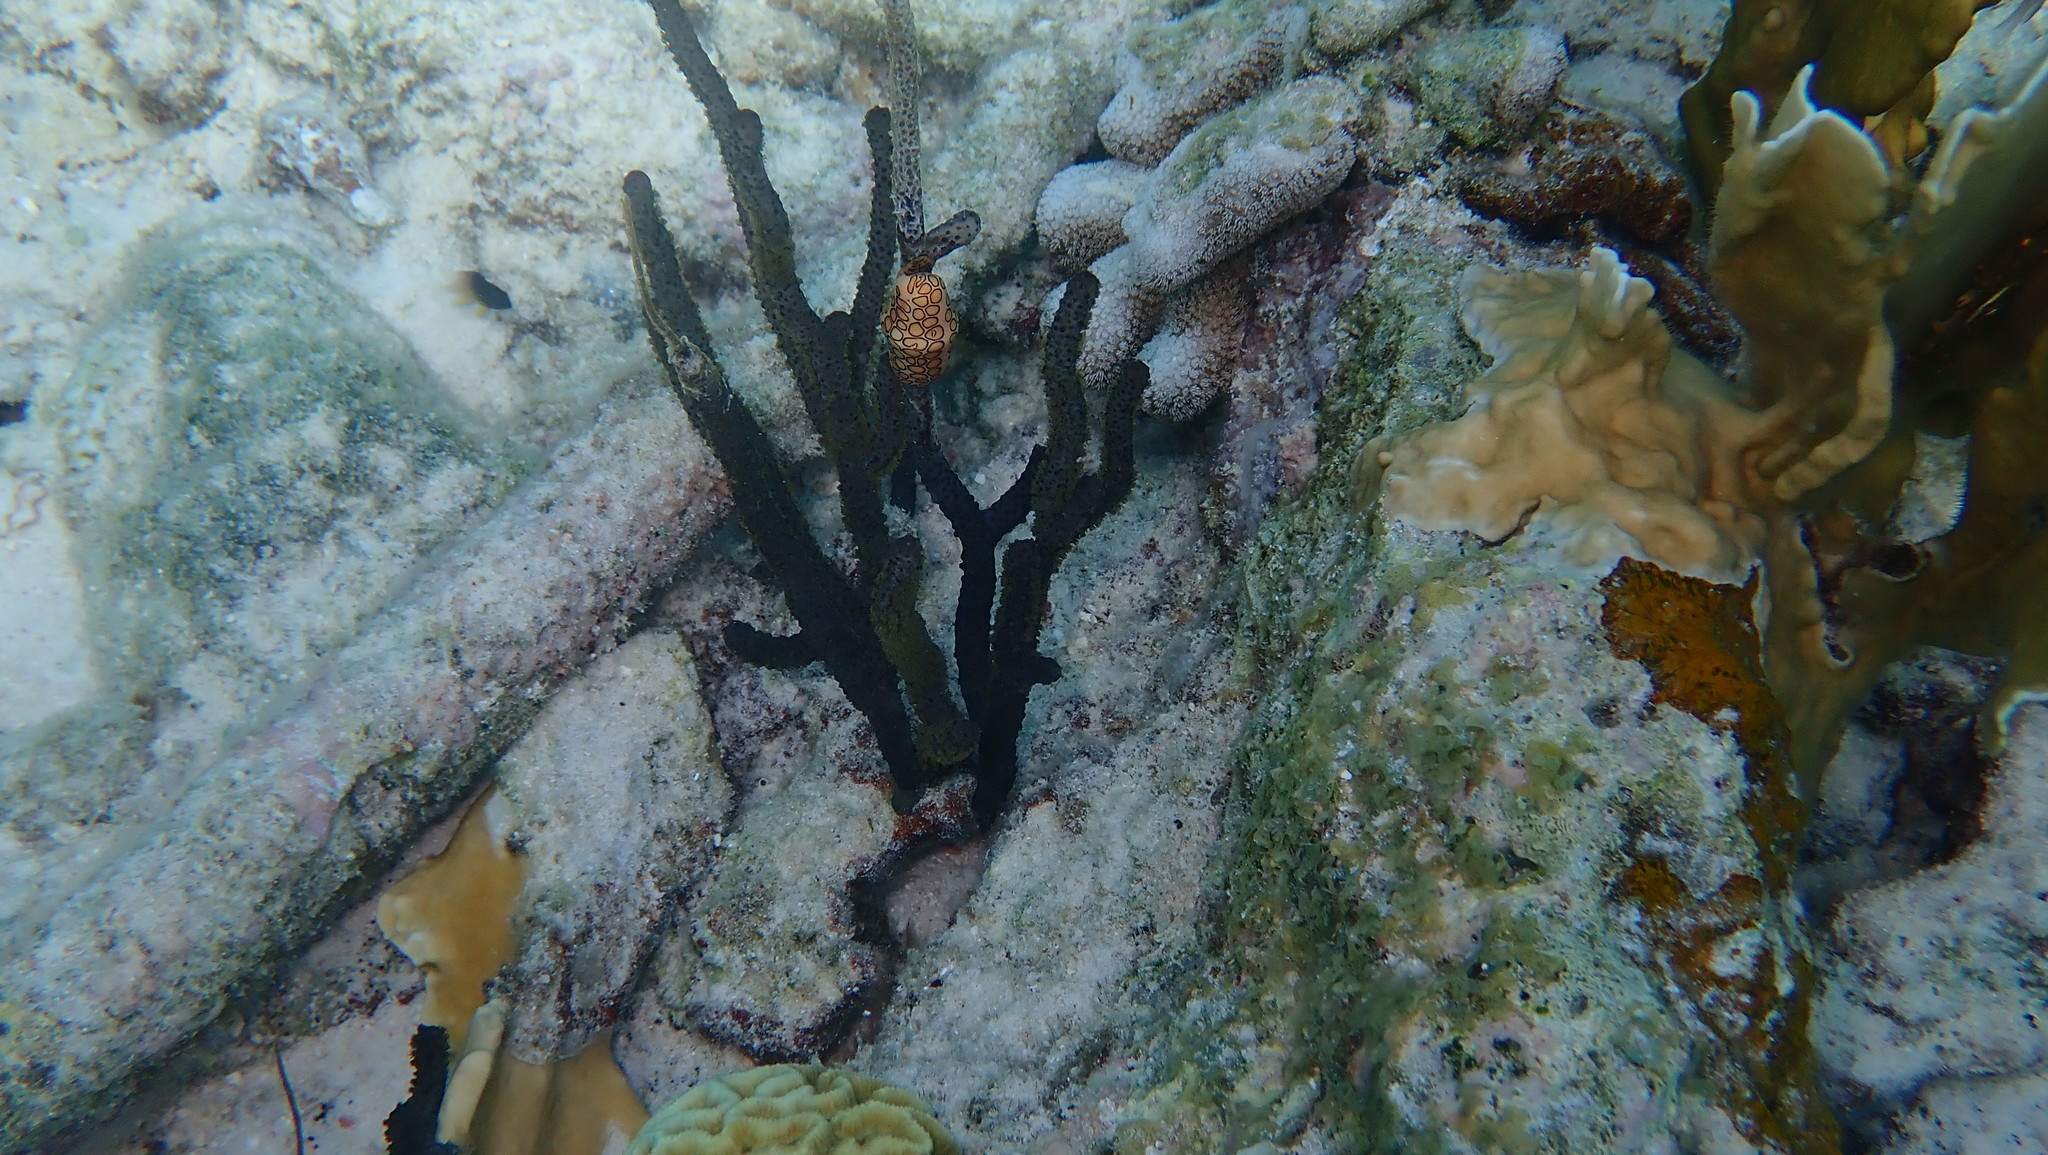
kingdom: Animalia
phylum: Mollusca
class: Gastropoda
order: Littorinimorpha
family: Ovulidae
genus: Cyphoma
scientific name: Cyphoma gibbosum
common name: Flamingo tongue
